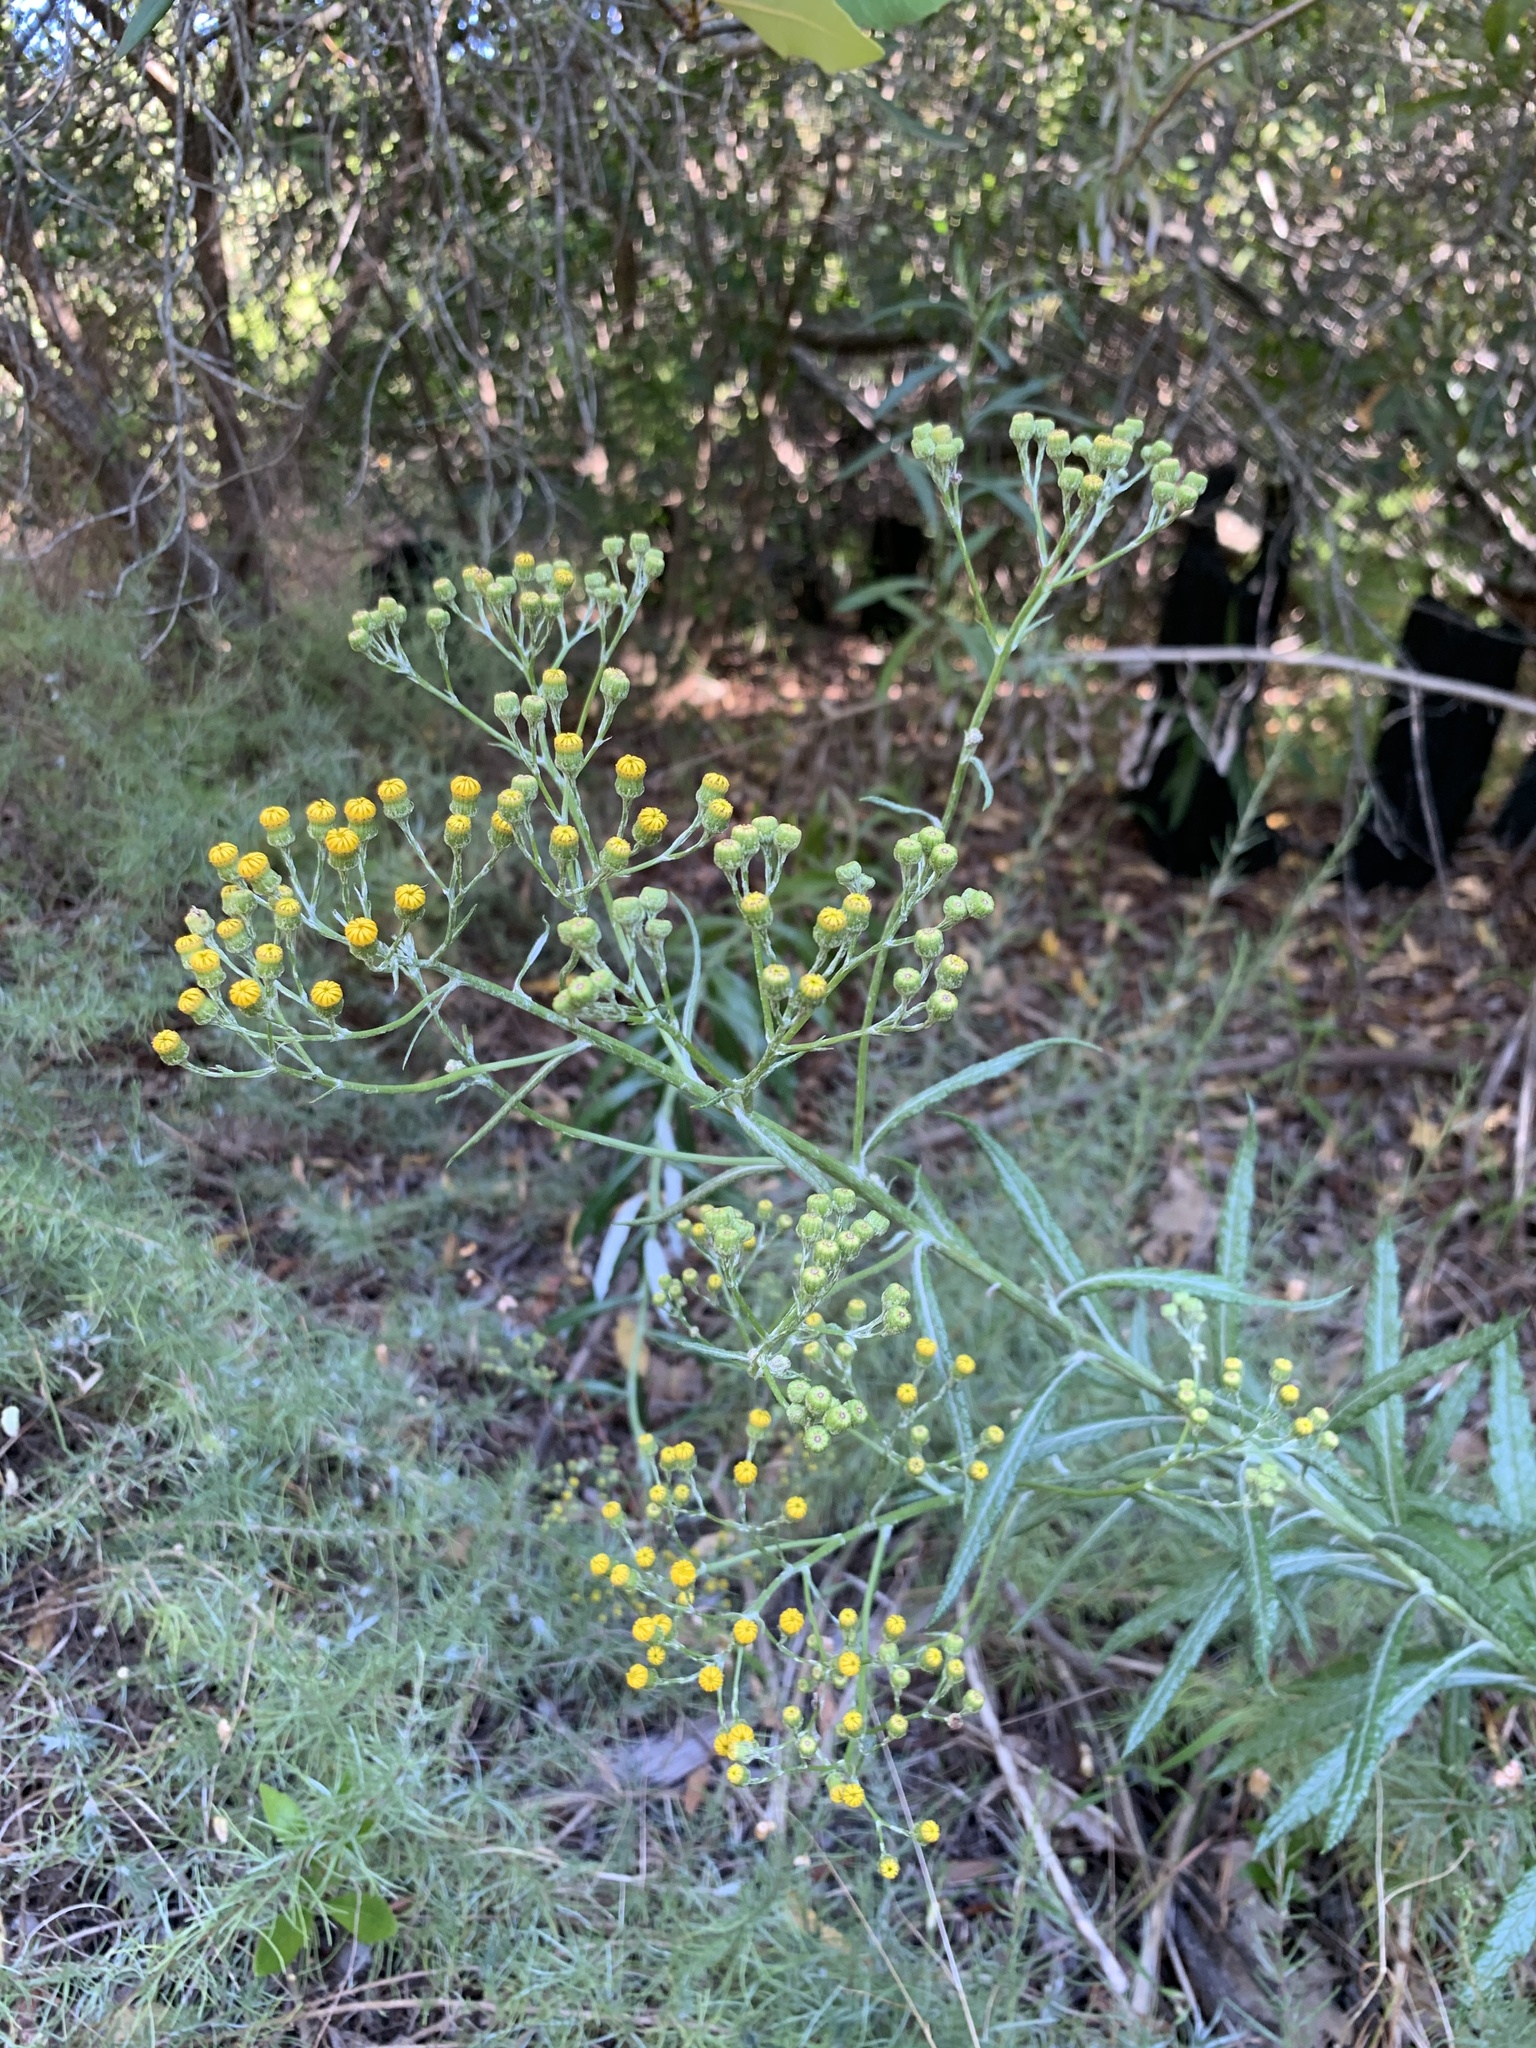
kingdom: Plantae
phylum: Tracheophyta
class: Magnoliopsida
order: Asterales
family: Asteraceae
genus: Senecio
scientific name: Senecio pterophorus
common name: Shoddy ragwort
